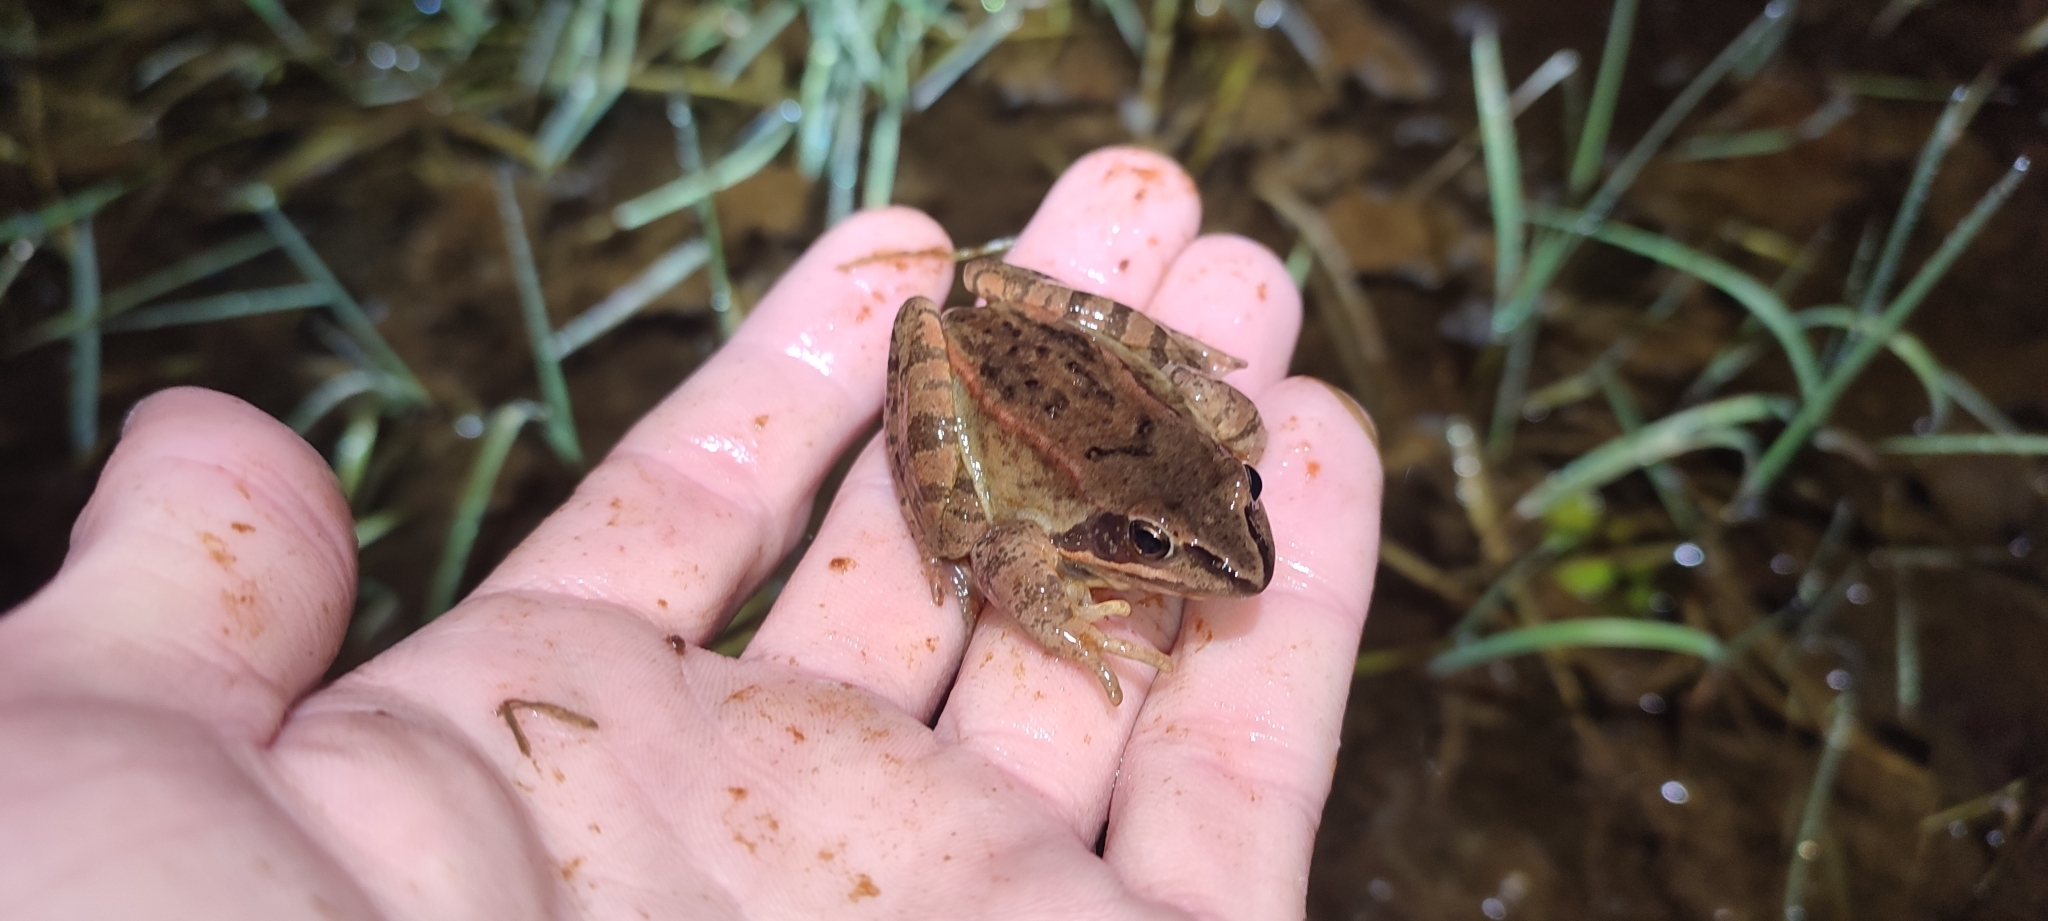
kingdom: Animalia
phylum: Chordata
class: Amphibia
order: Anura
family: Ranidae
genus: Rana
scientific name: Rana dalmatina
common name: Agile frog
